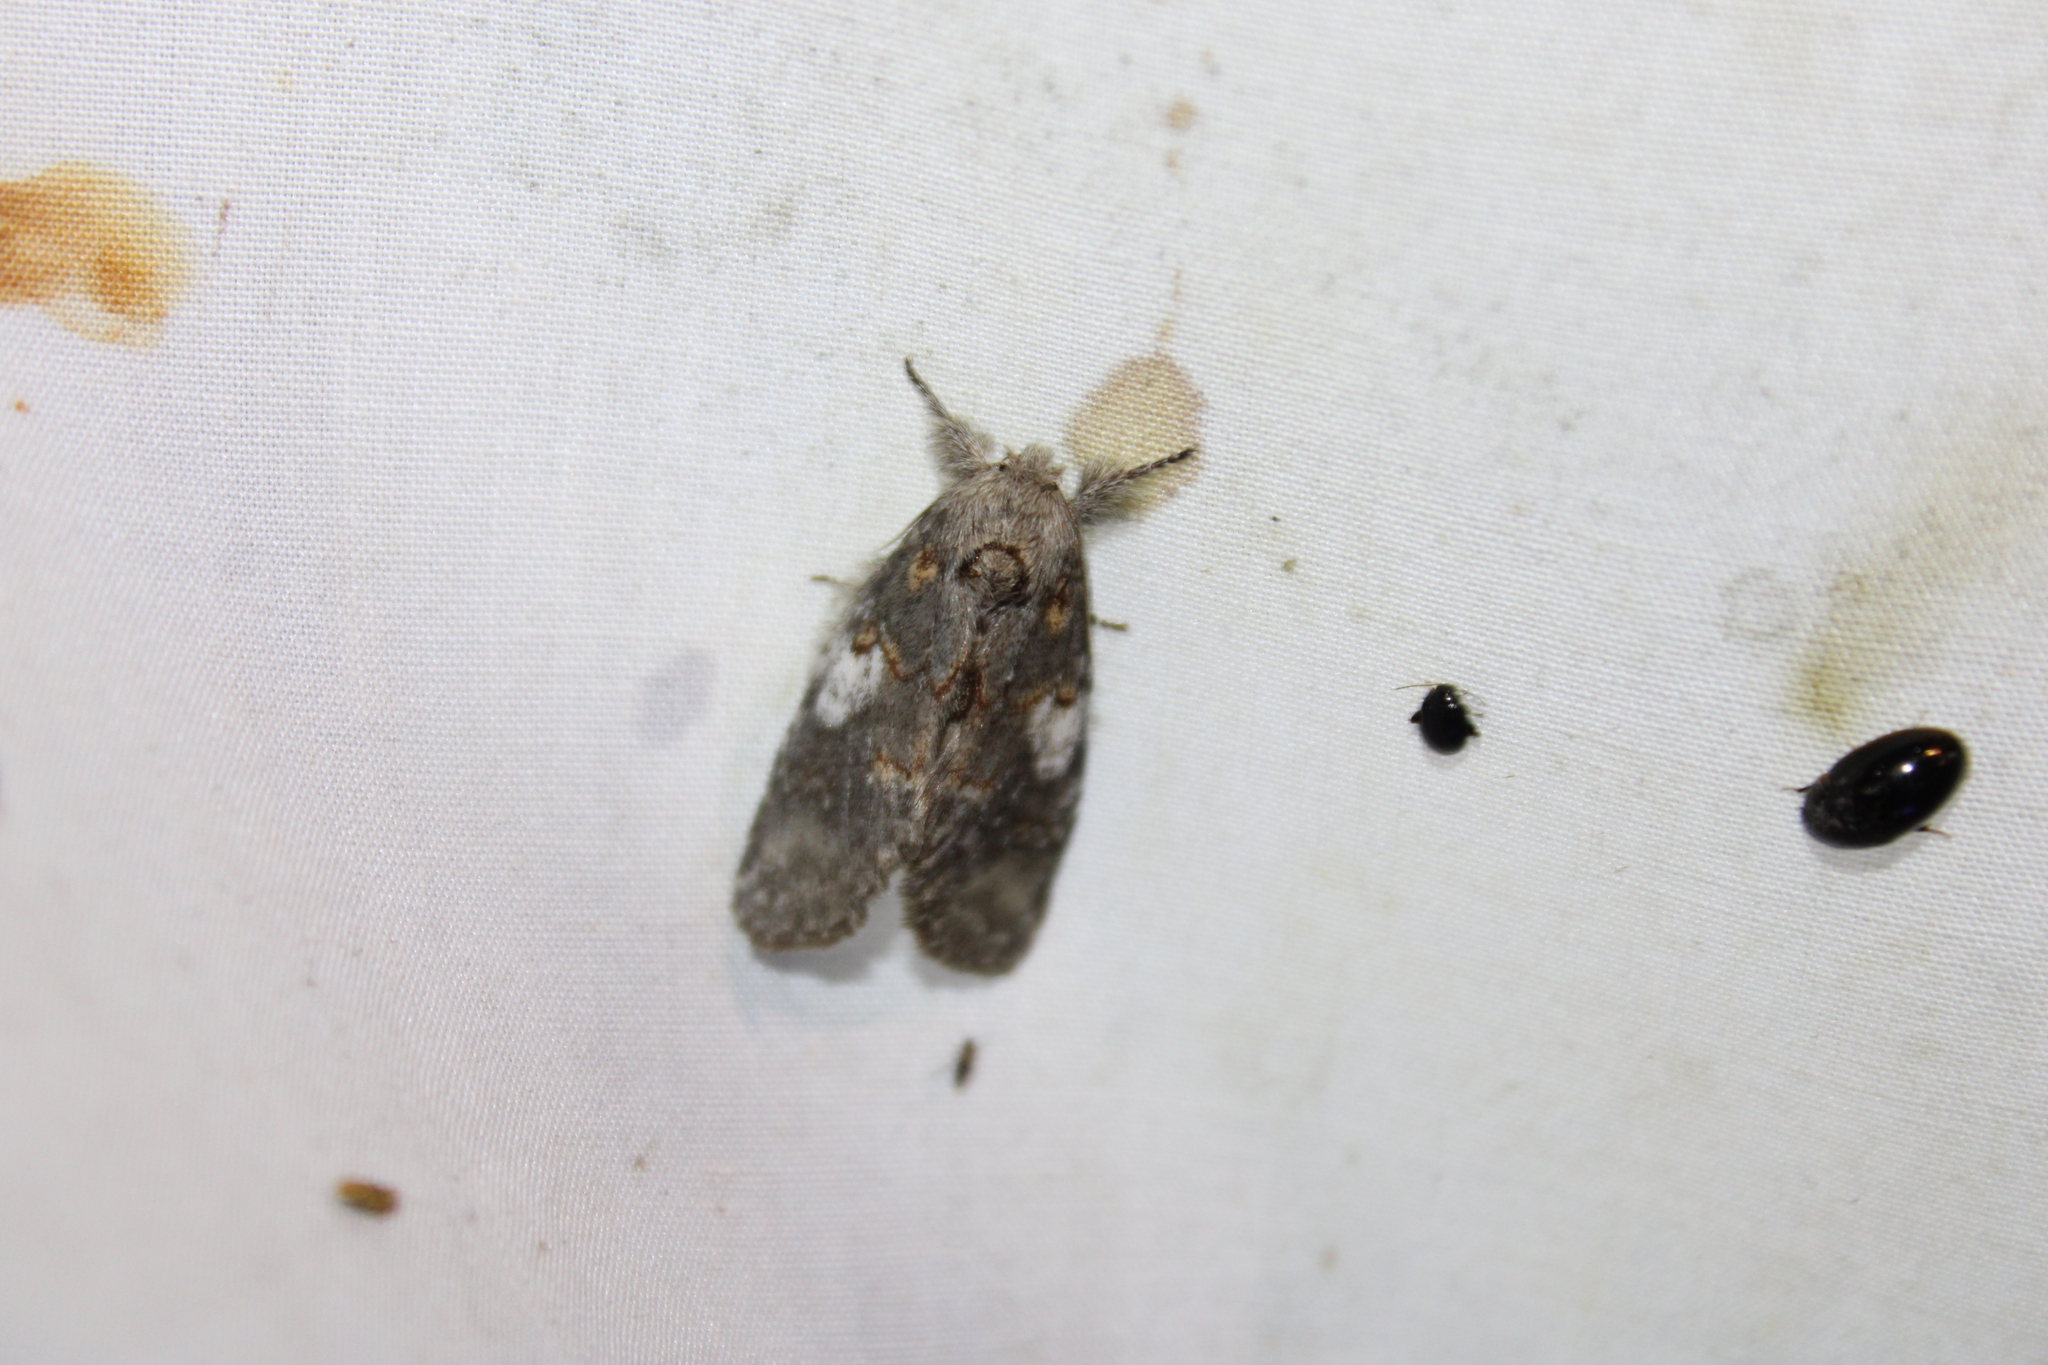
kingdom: Animalia
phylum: Arthropoda
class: Insecta
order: Lepidoptera
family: Notodontidae
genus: Peridea
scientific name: Peridea angulosa
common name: Angulose prominent
